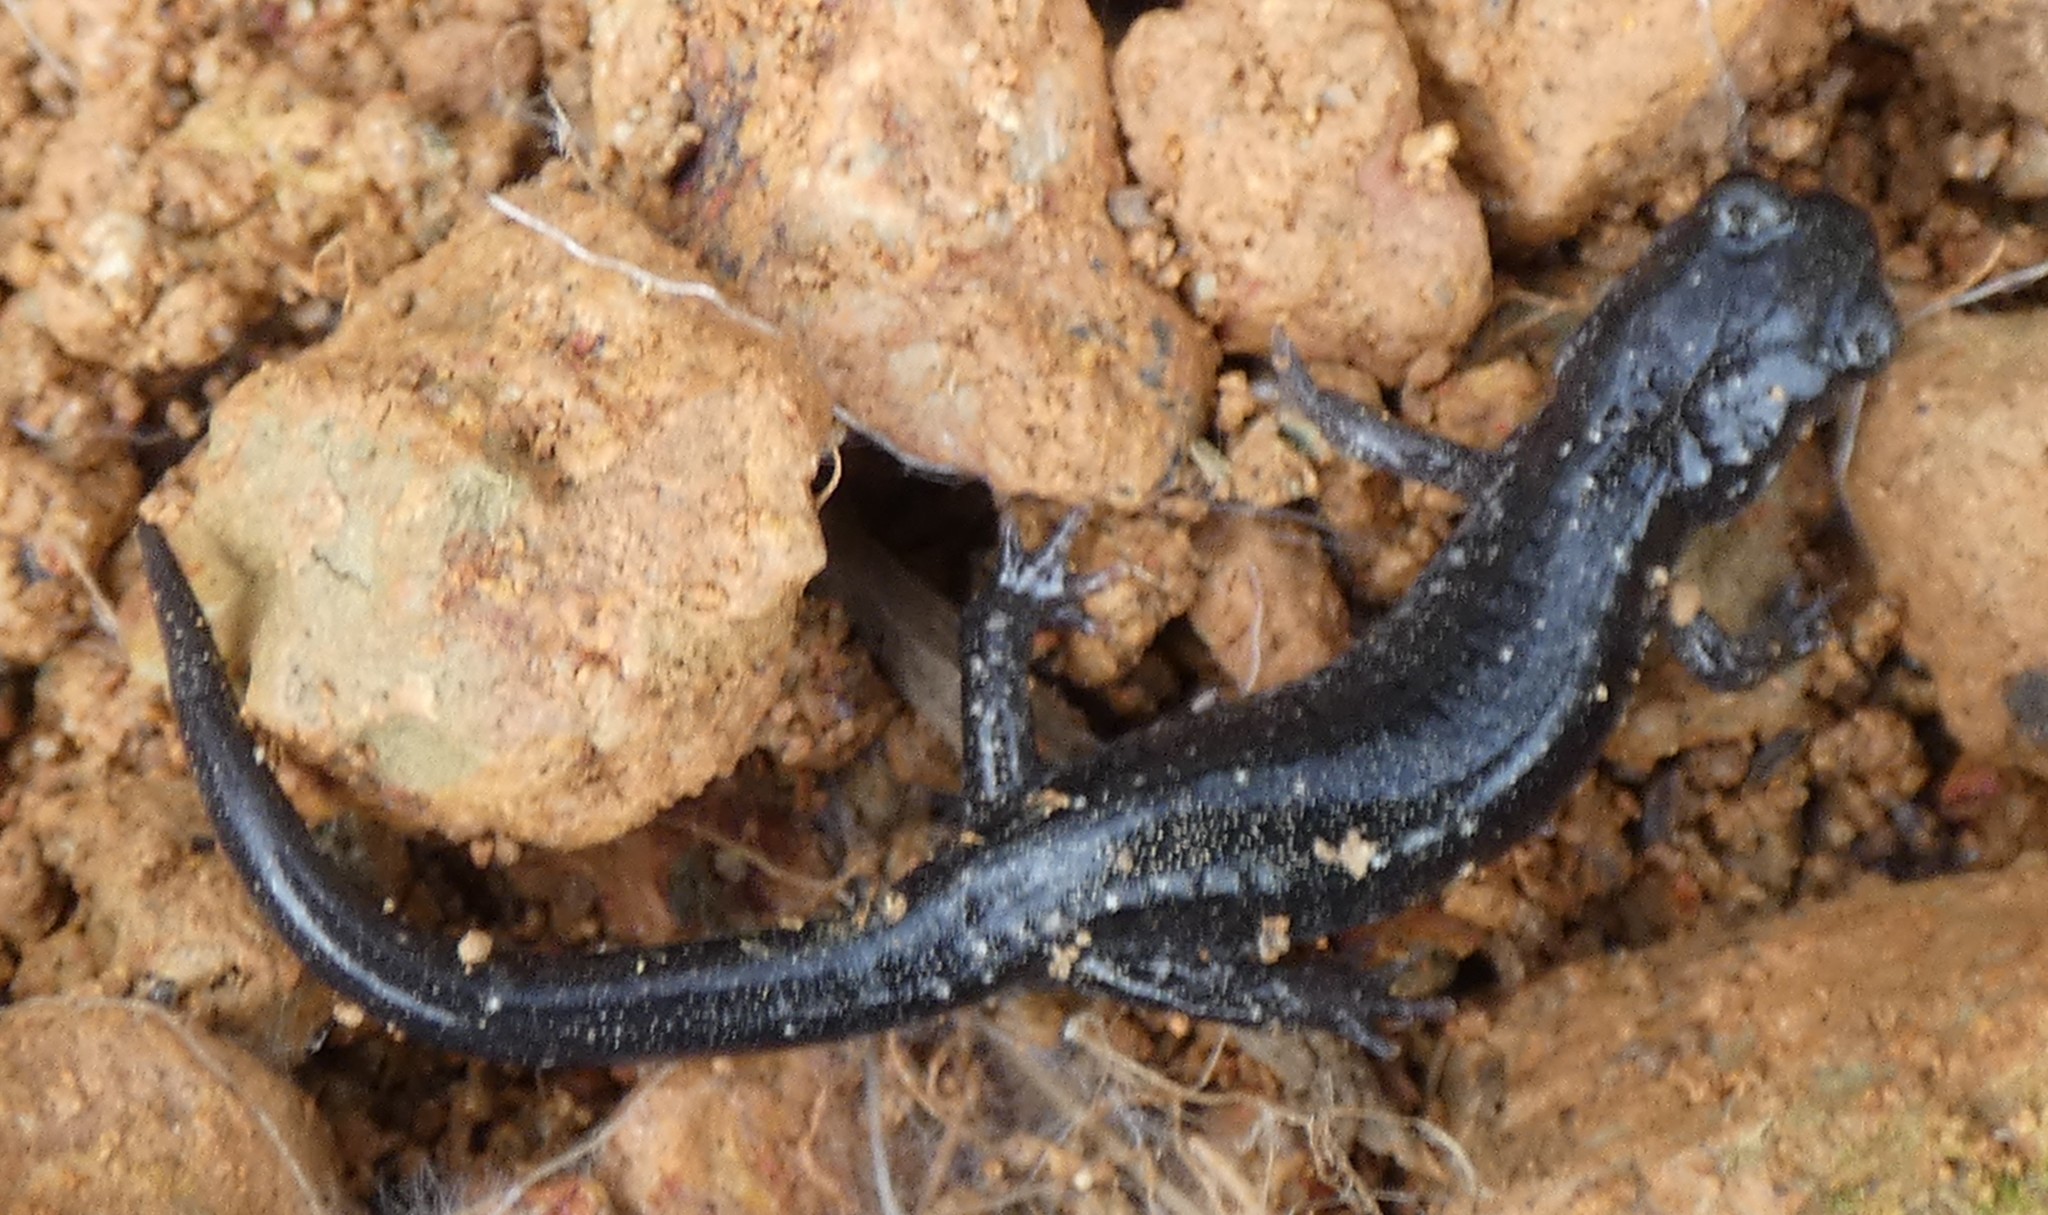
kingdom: Animalia
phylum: Chordata
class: Amphibia
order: Caudata
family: Plethodontidae
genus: Plethodon
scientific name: Plethodon cylindraceus
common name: White-spotted slimy salamander
